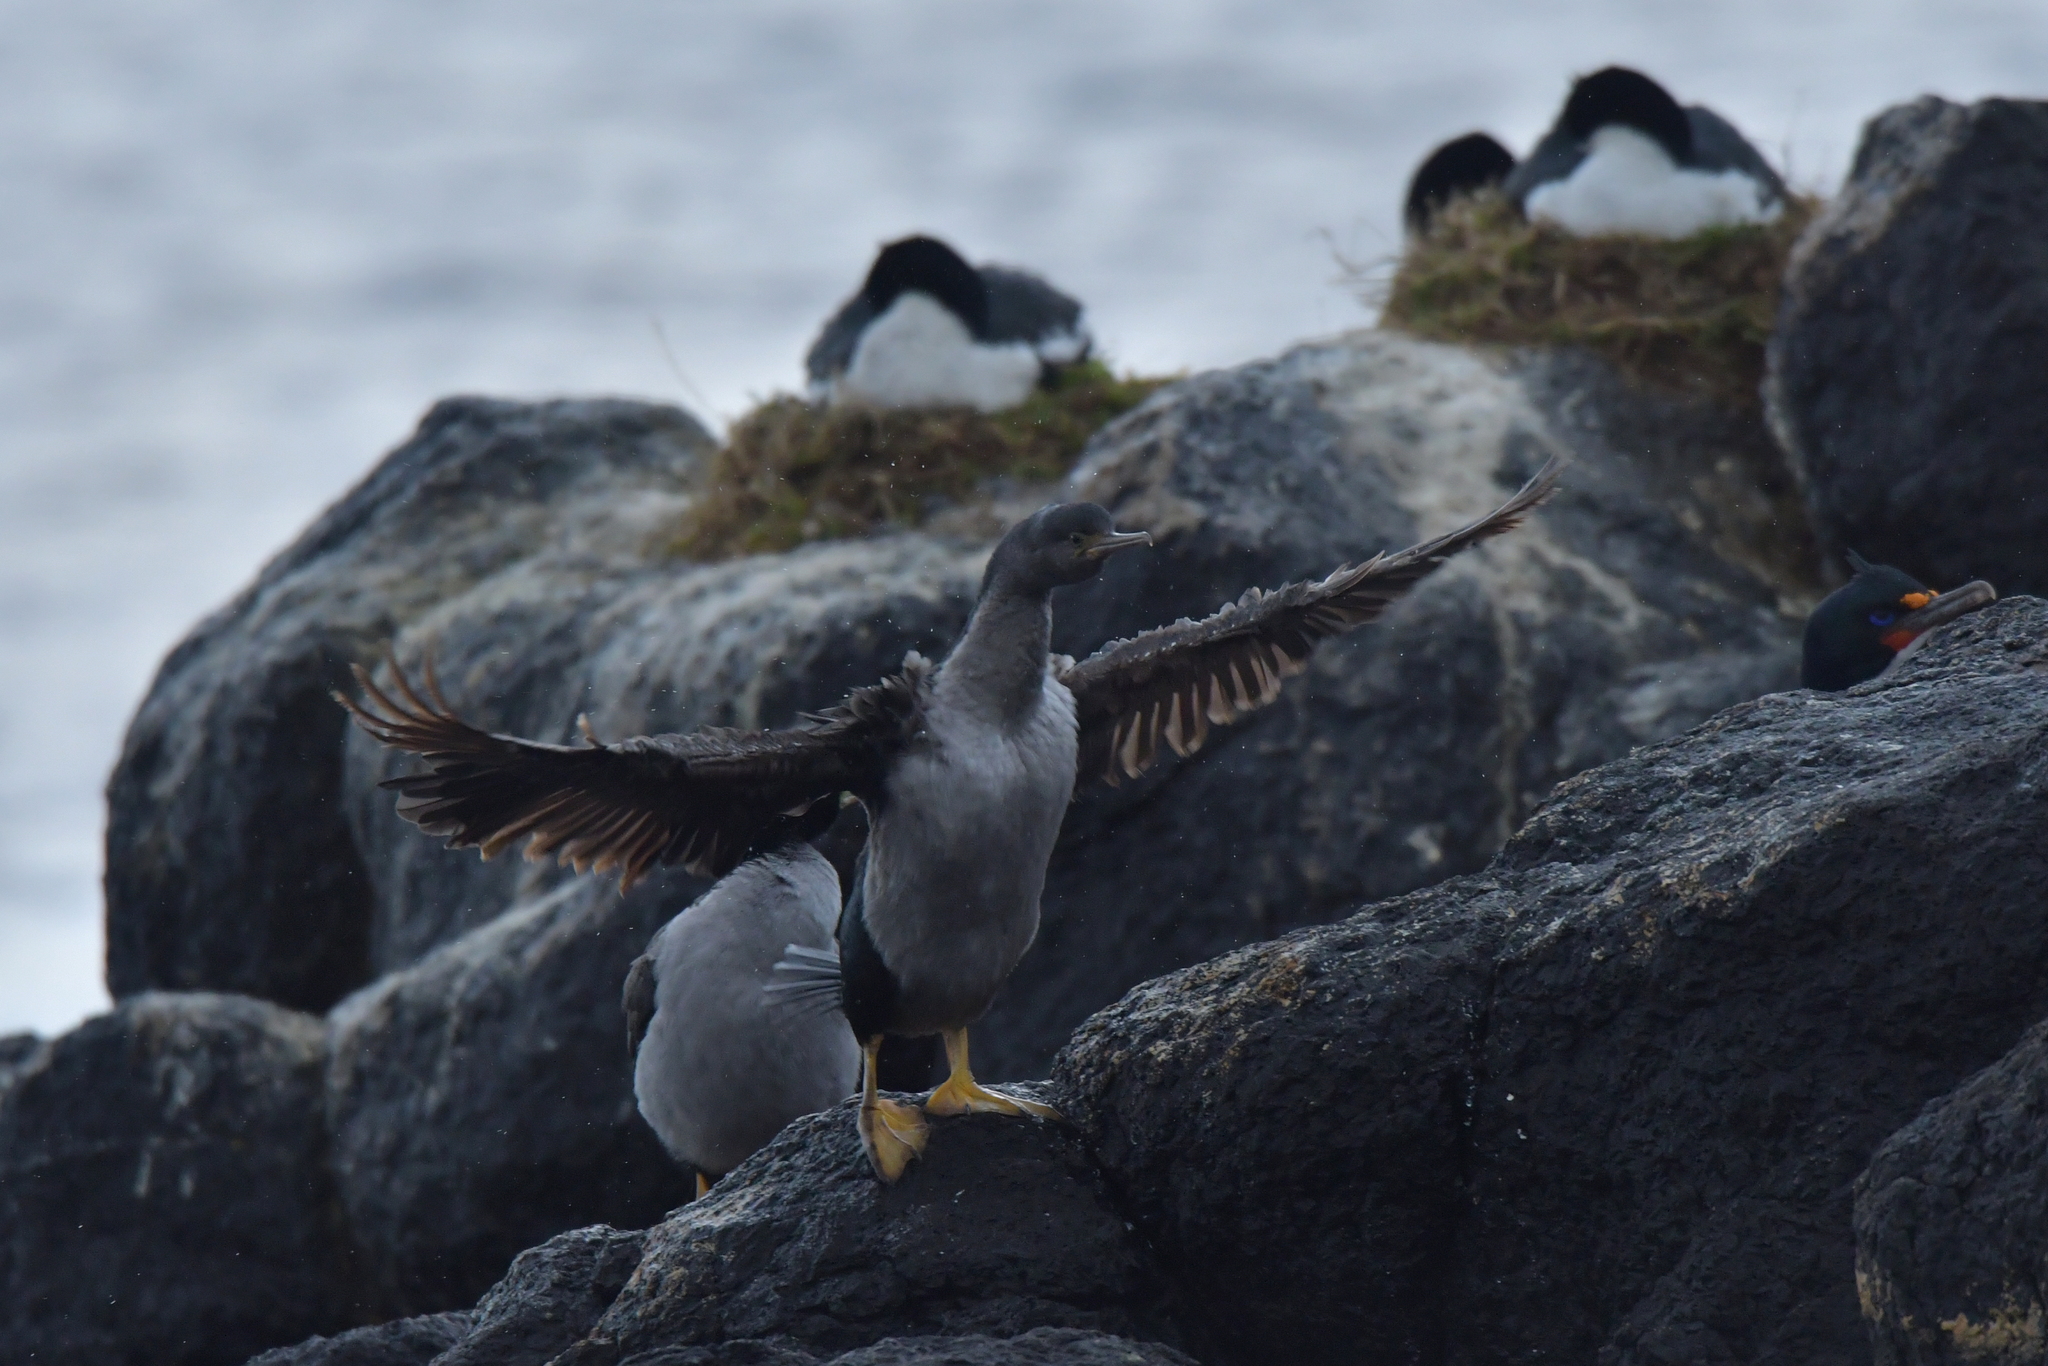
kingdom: Animalia
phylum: Chordata
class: Aves
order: Suliformes
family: Phalacrocoracidae
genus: Phalacrocorax
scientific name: Phalacrocorax featherstoni
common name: Pitt shag
